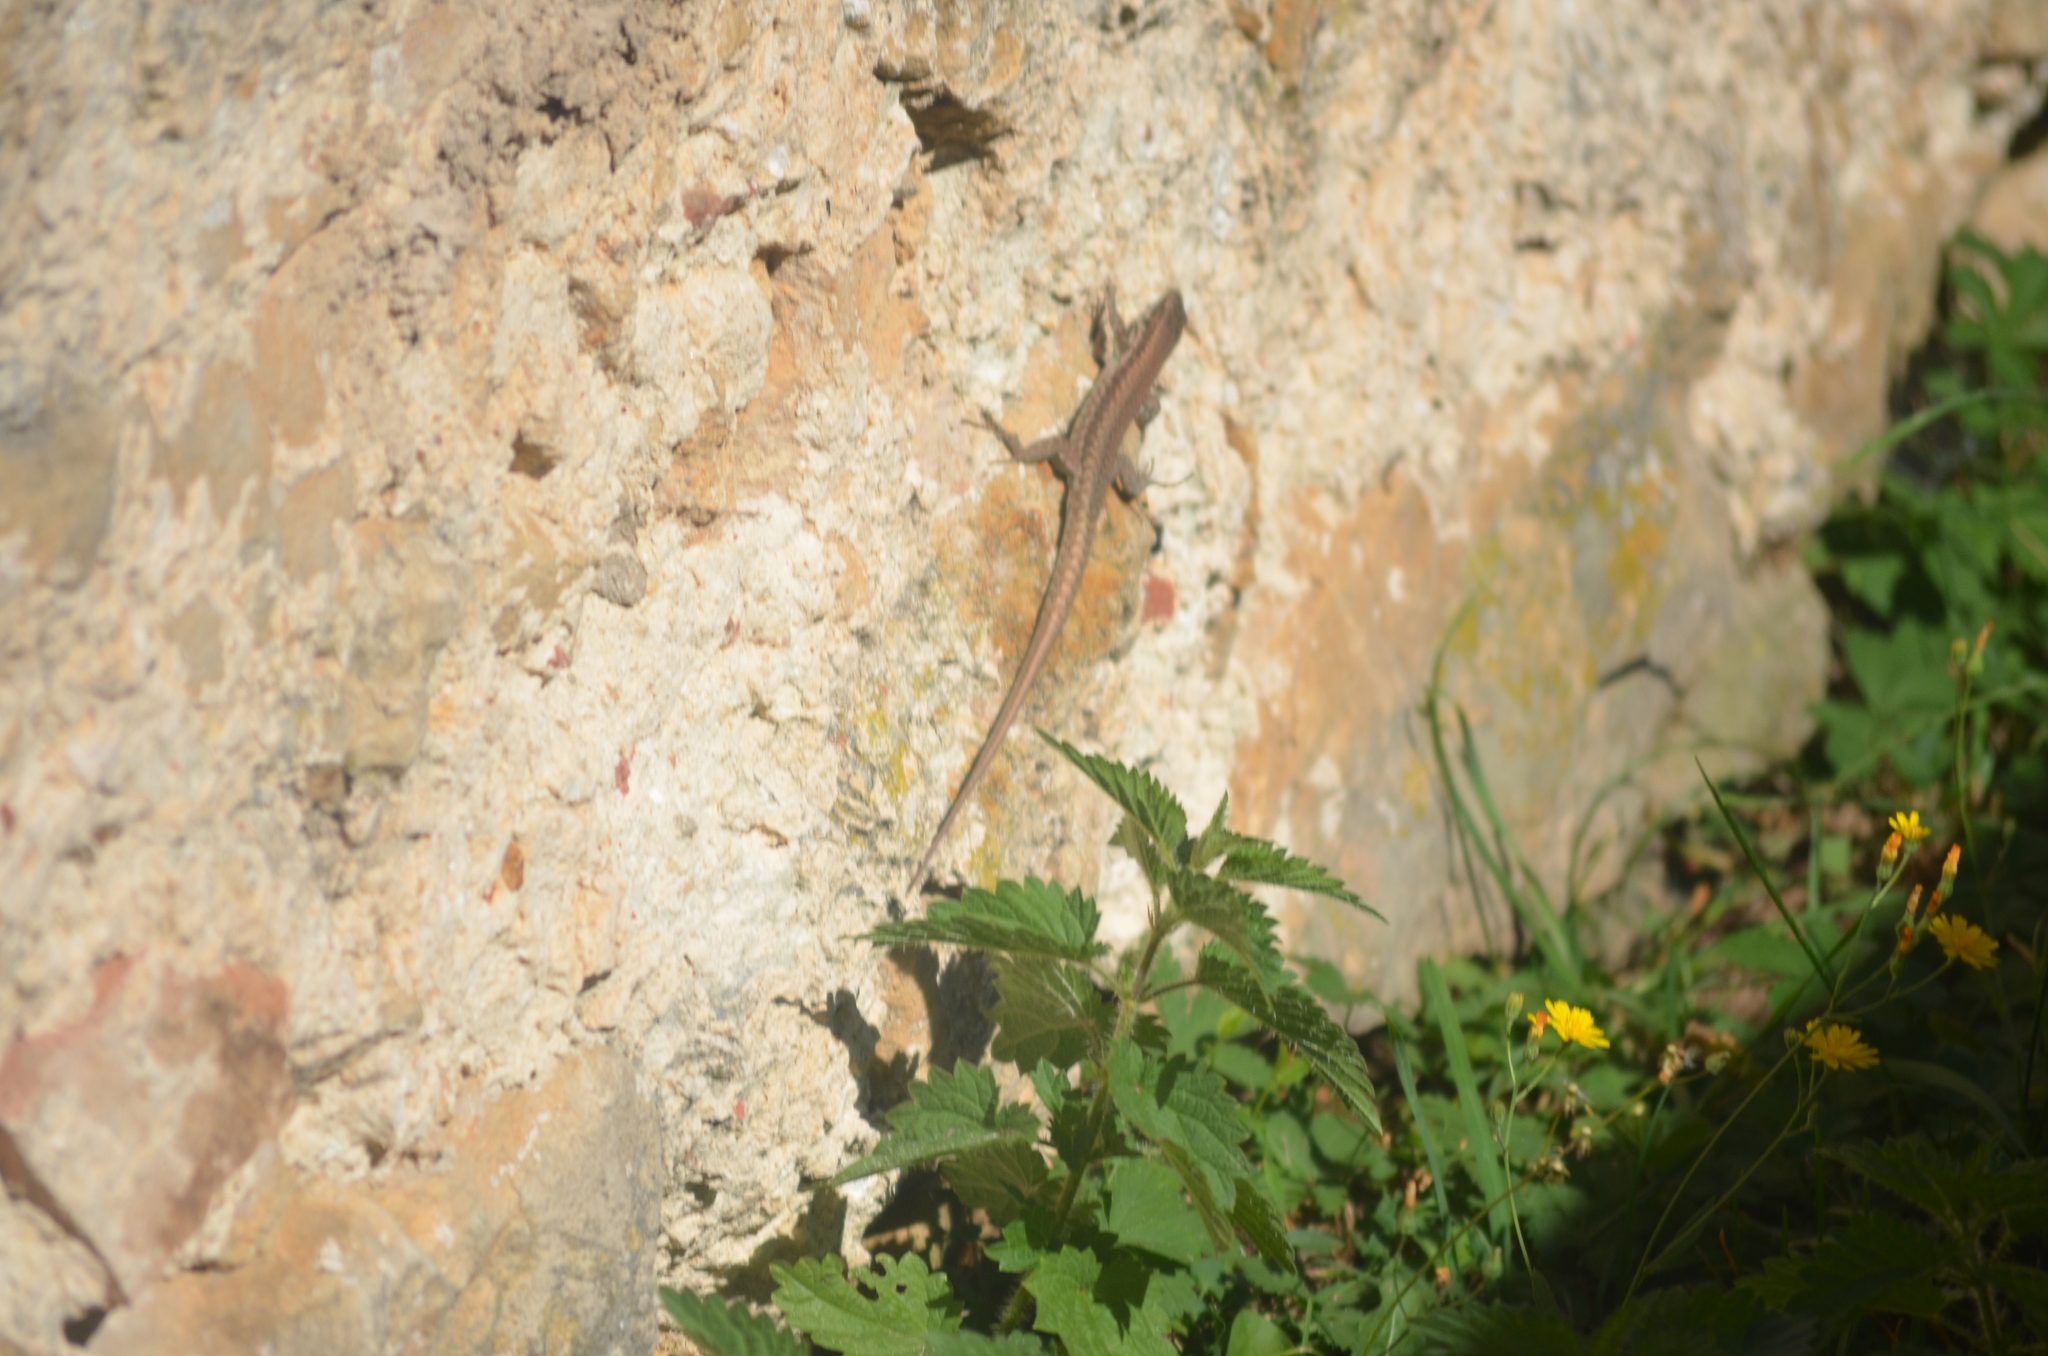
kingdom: Animalia
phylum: Chordata
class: Squamata
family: Lacertidae
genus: Podarcis
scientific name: Podarcis muralis
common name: Common wall lizard
